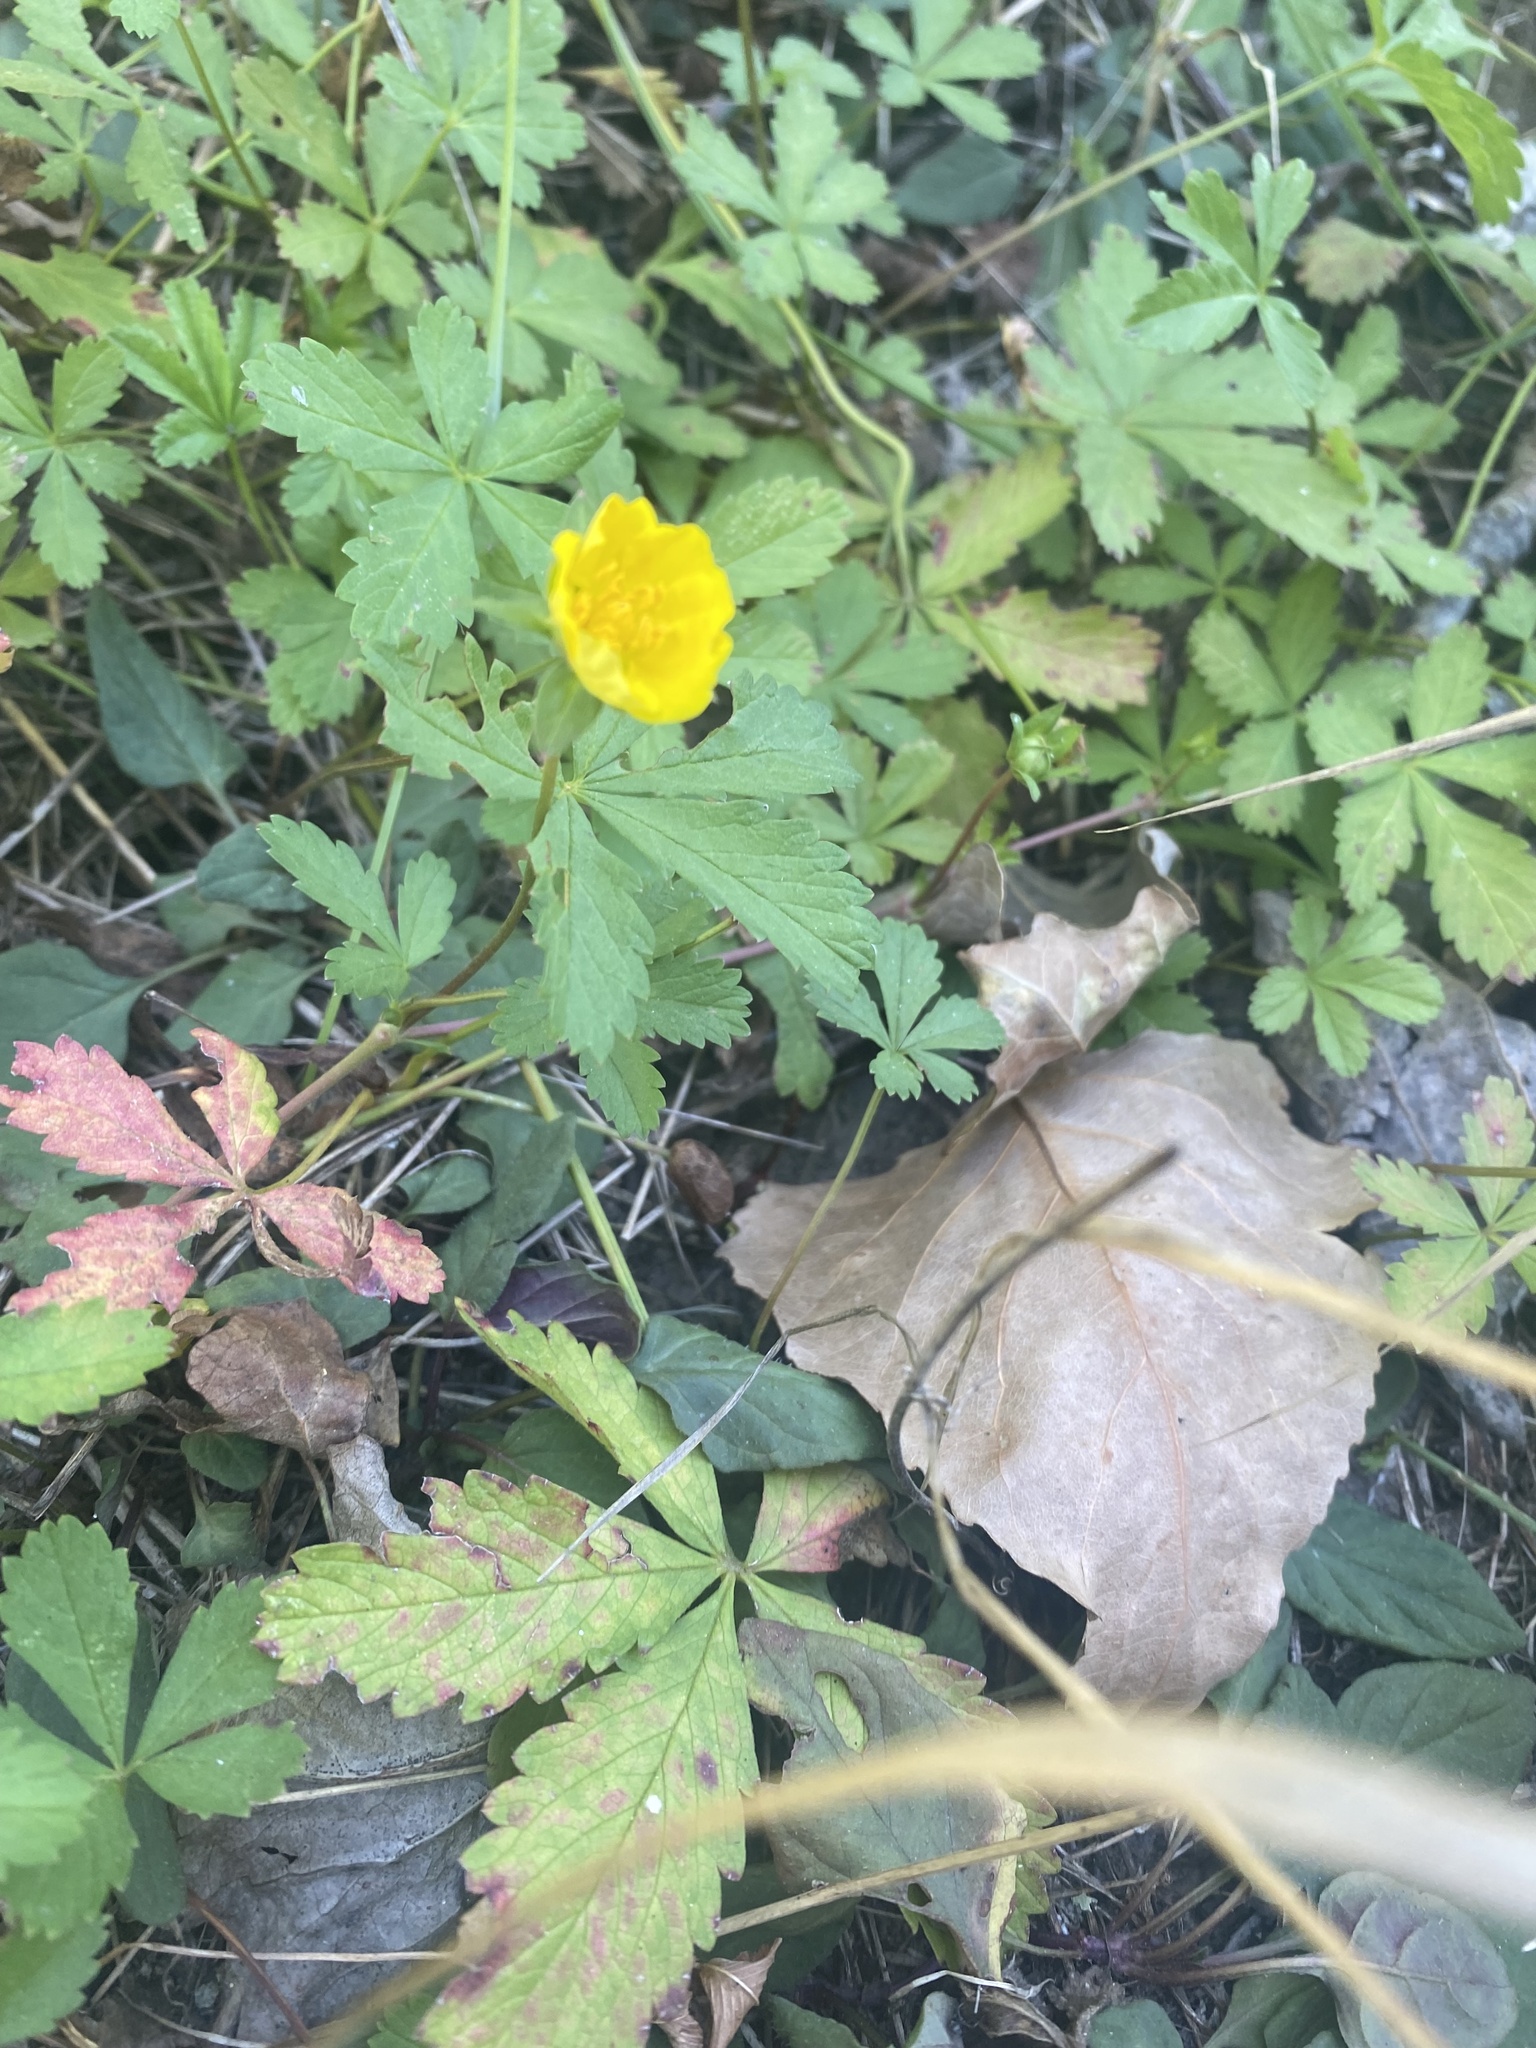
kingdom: Plantae
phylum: Tracheophyta
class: Magnoliopsida
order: Rosales
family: Rosaceae
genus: Potentilla
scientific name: Potentilla reptans
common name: Creeping cinquefoil
